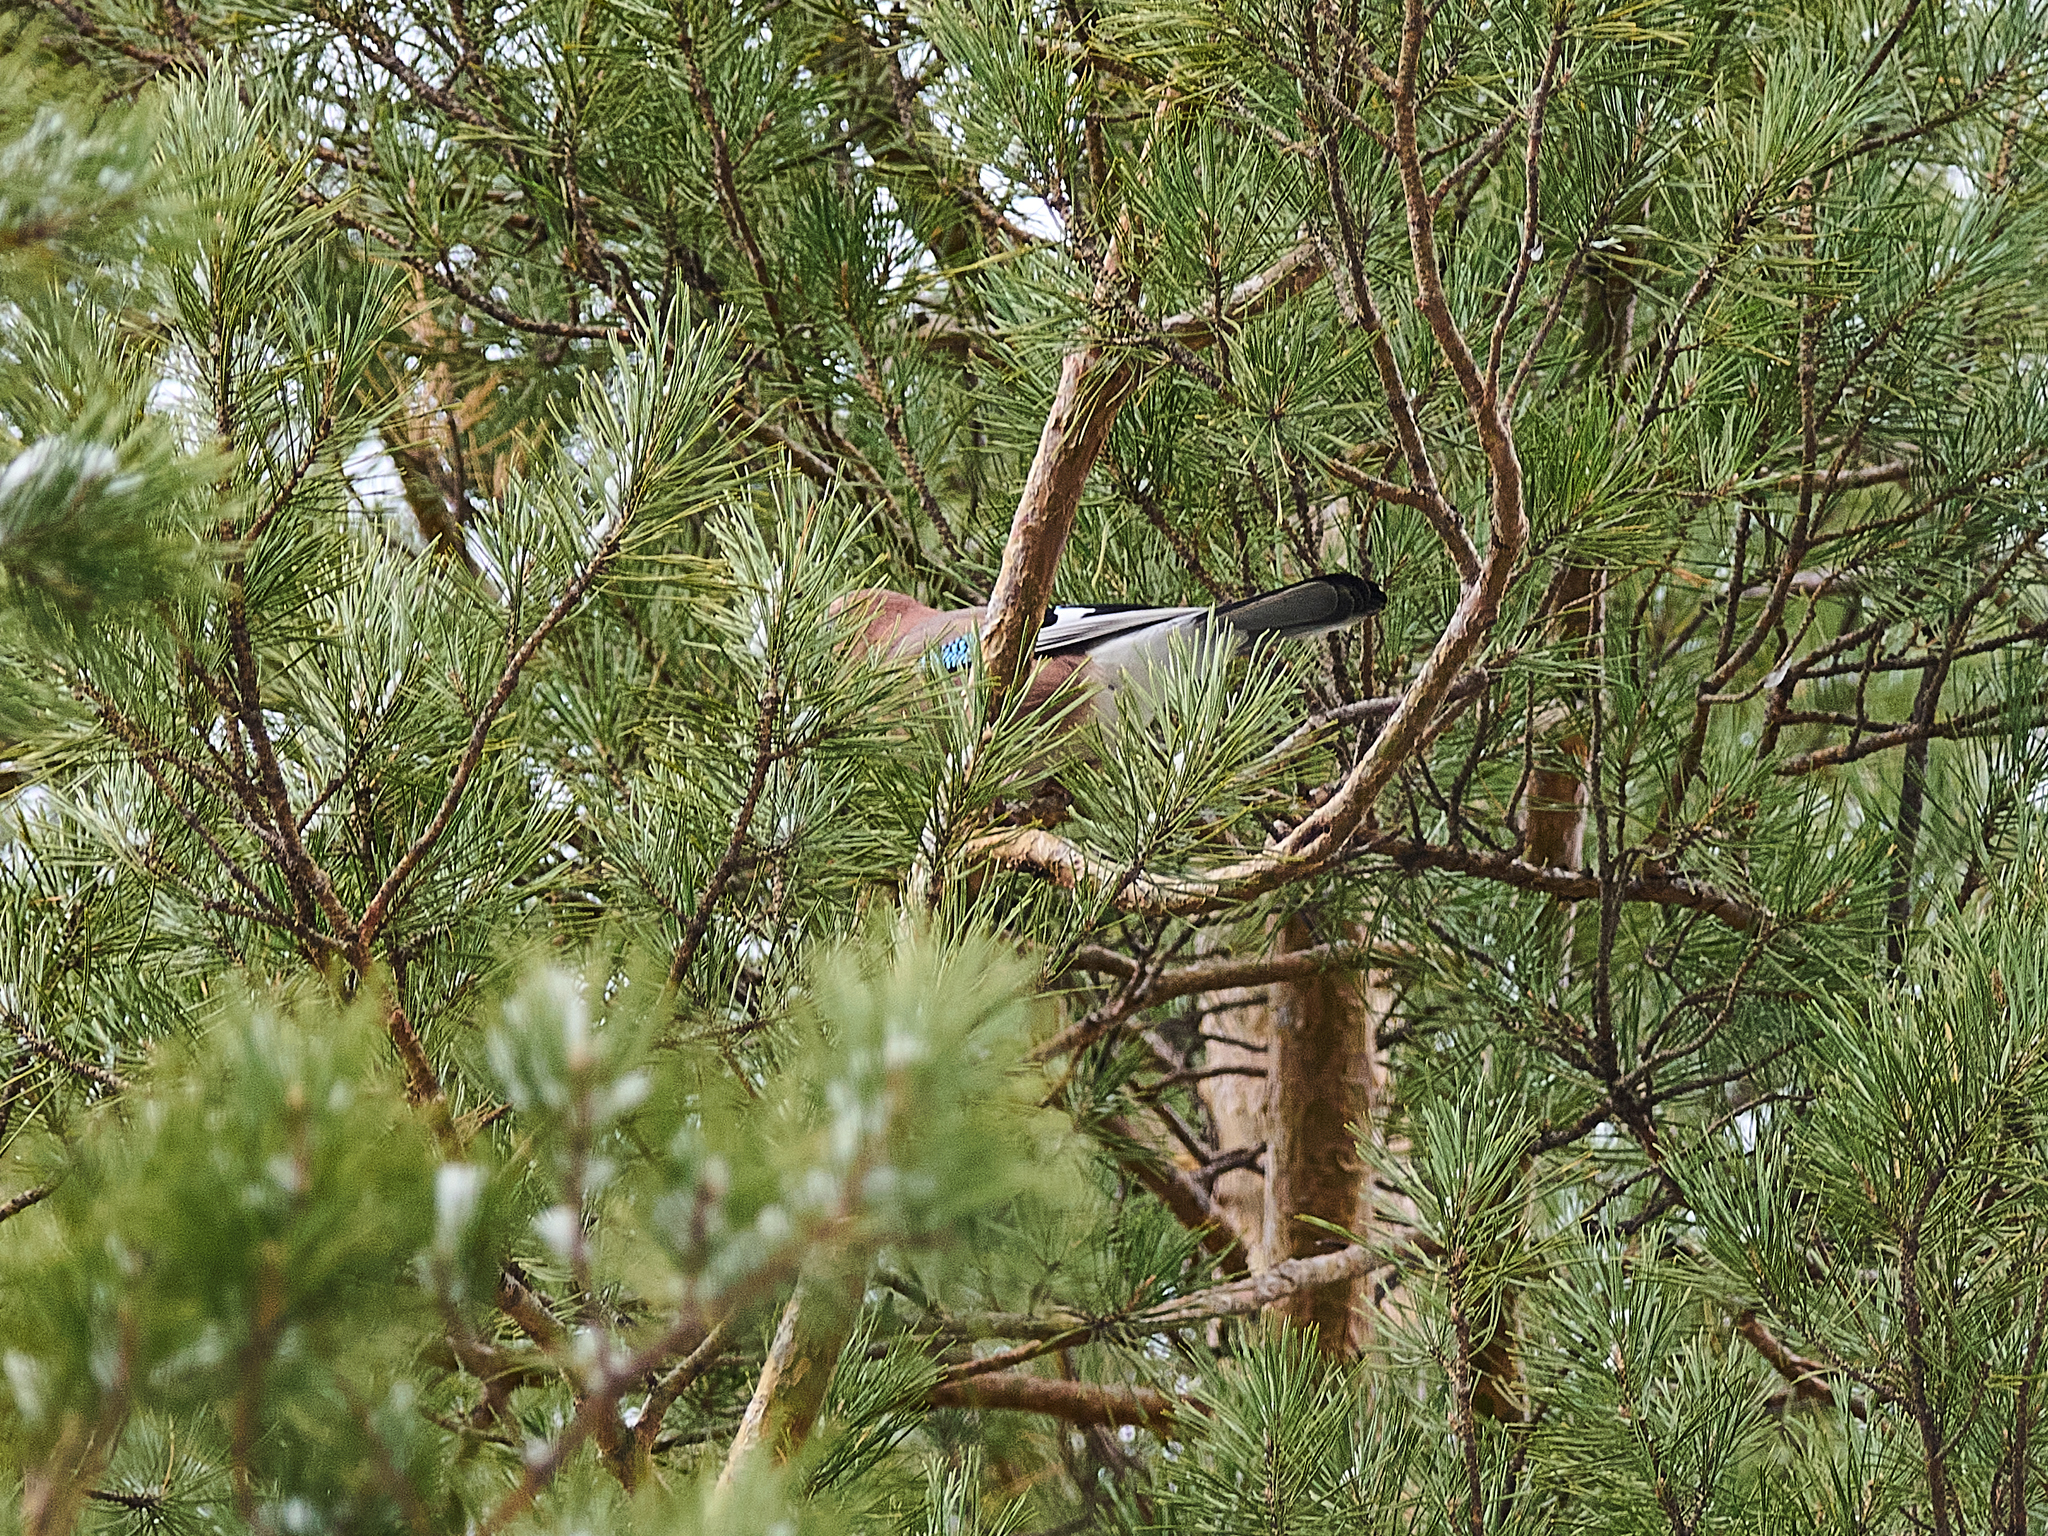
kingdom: Animalia
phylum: Chordata
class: Aves
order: Passeriformes
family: Corvidae
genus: Garrulus
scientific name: Garrulus glandarius
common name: Eurasian jay
